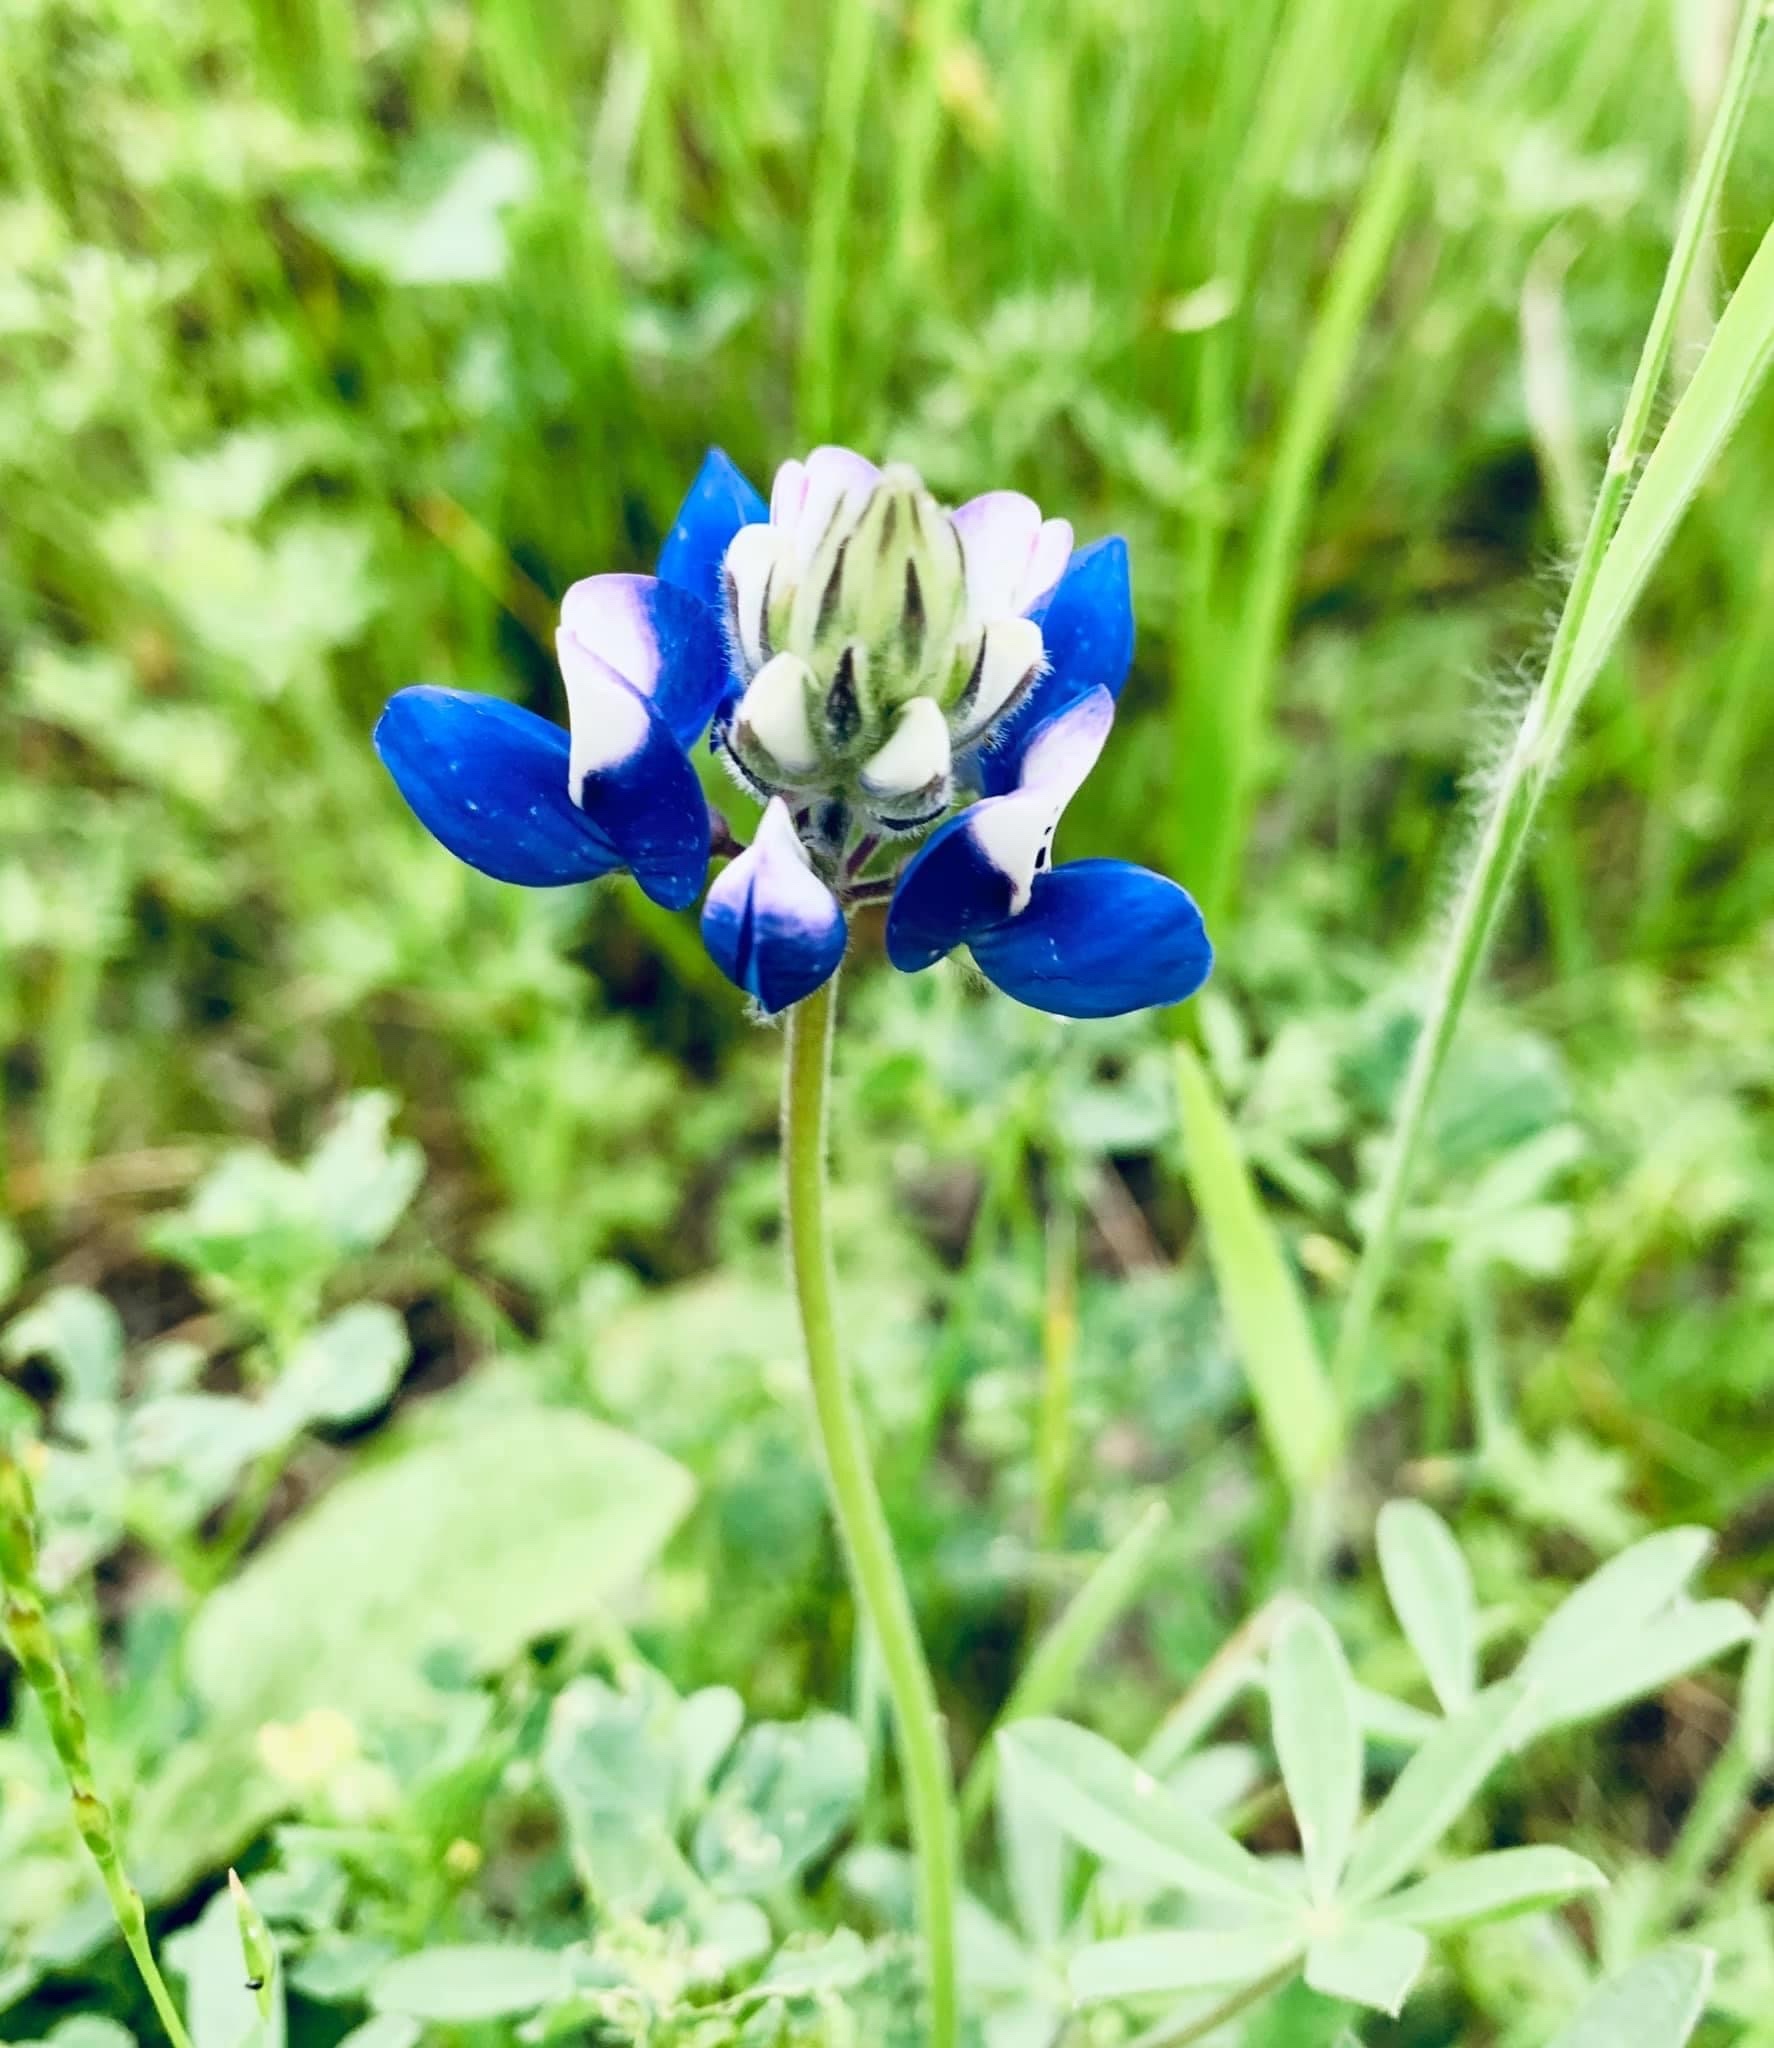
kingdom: Plantae
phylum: Tracheophyta
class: Magnoliopsida
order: Fabales
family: Fabaceae
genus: Lupinus
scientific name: Lupinus nanus
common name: Orean blue lupin
